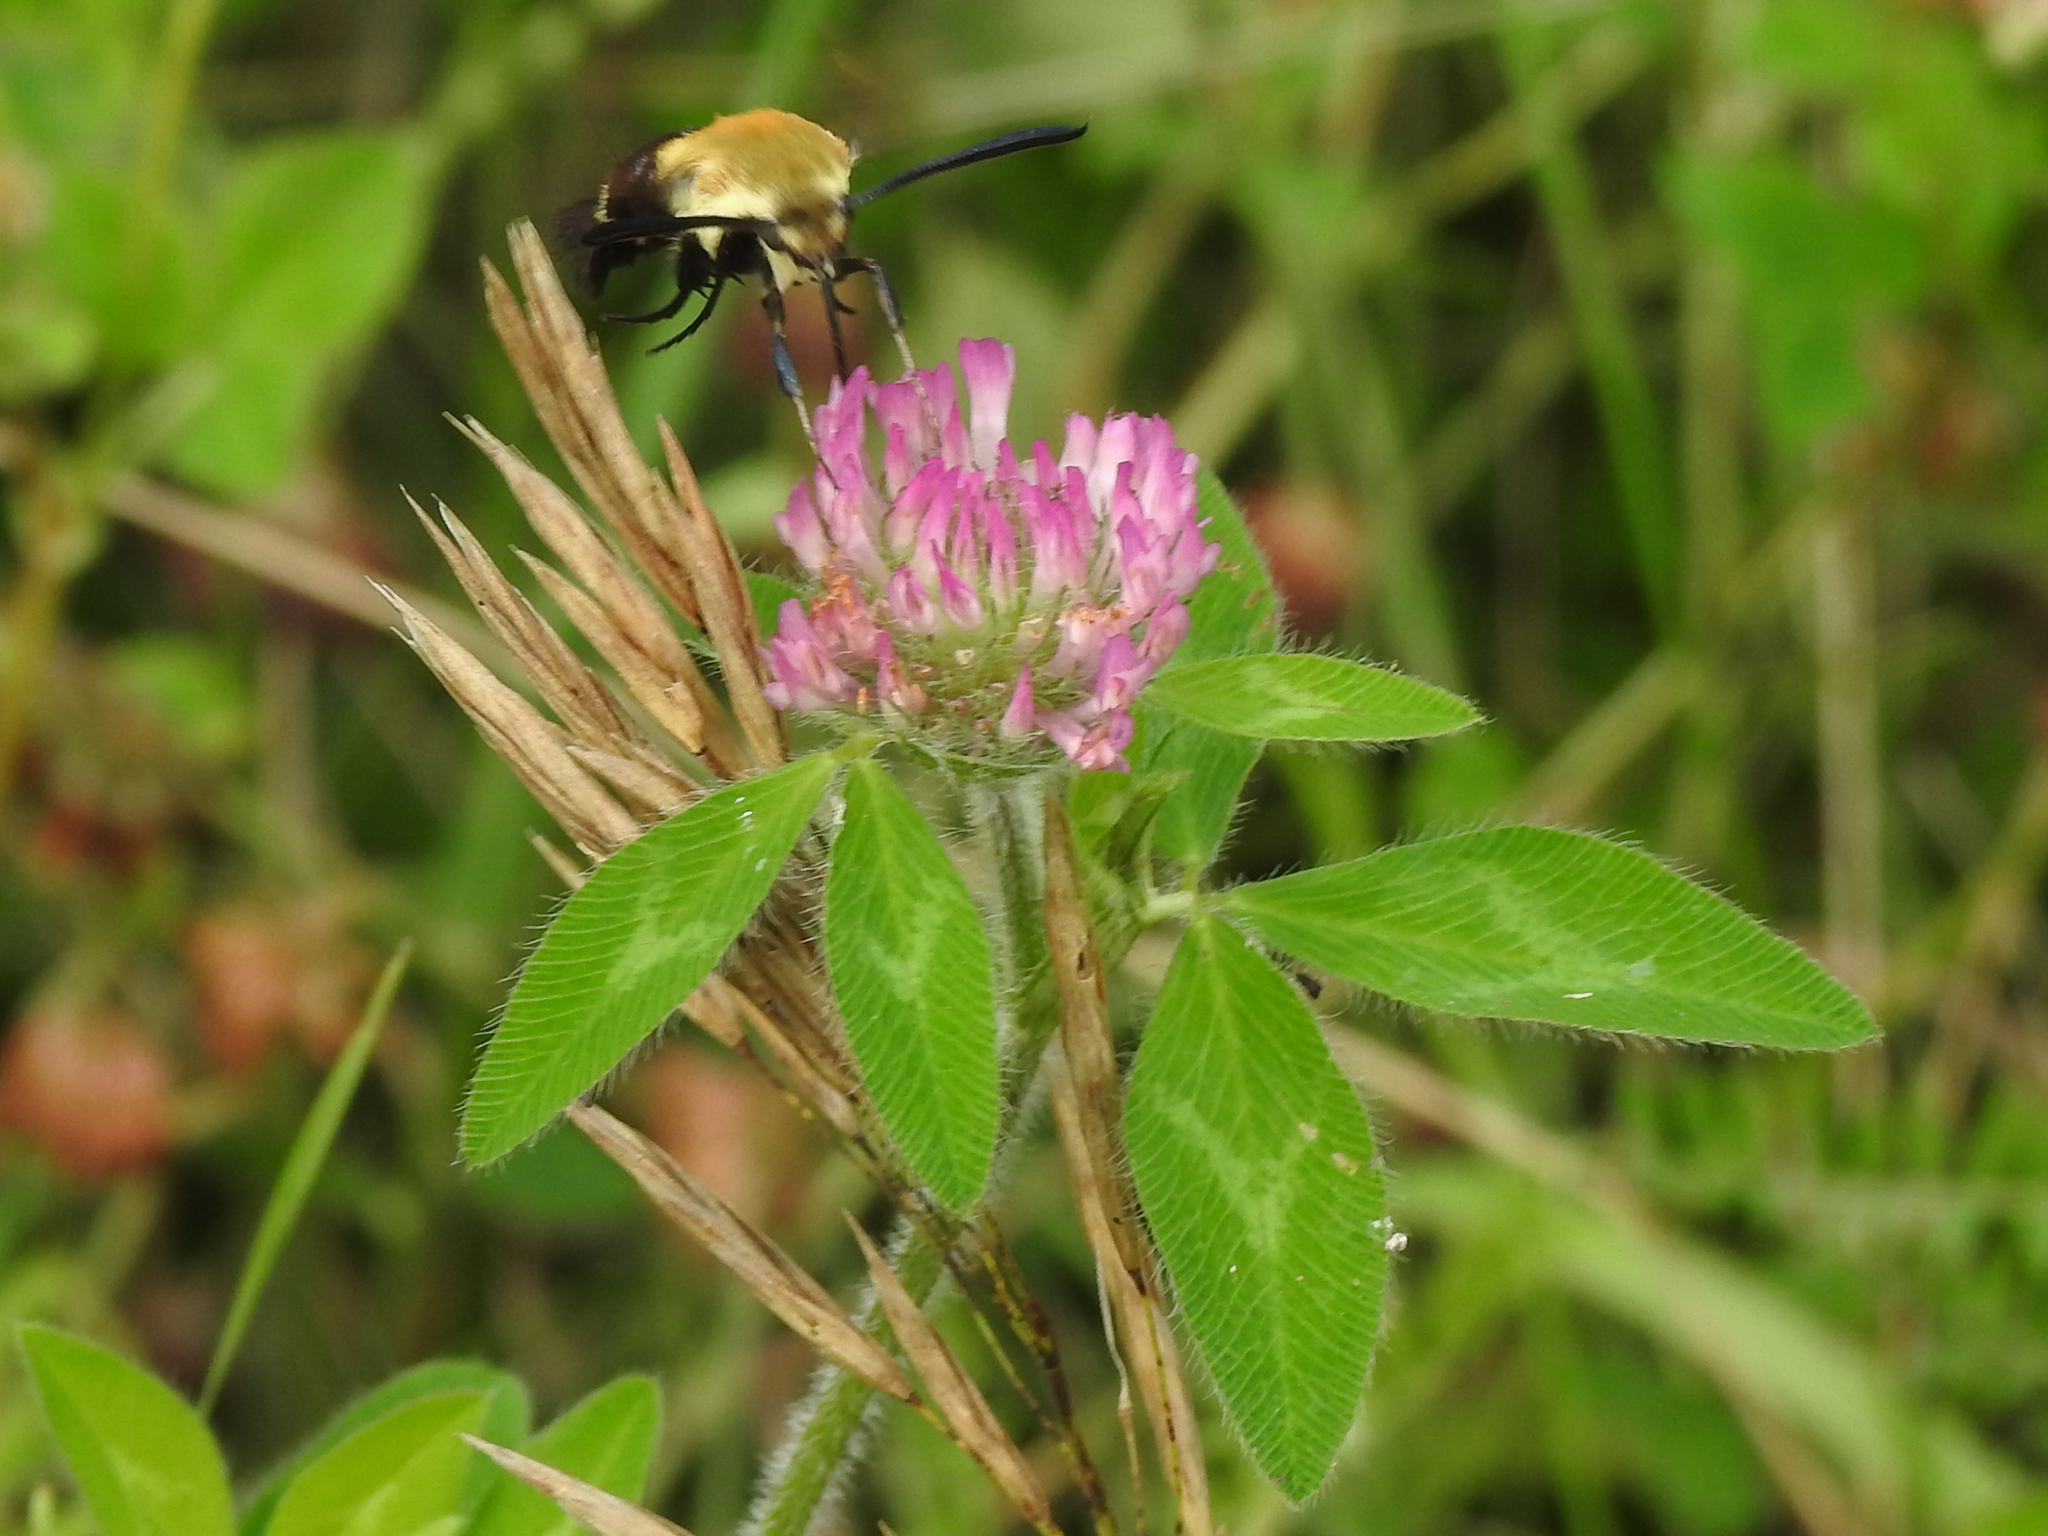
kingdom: Animalia
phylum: Arthropoda
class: Insecta
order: Lepidoptera
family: Sphingidae
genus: Hemaris
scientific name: Hemaris diffinis
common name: Bumblebee moth
